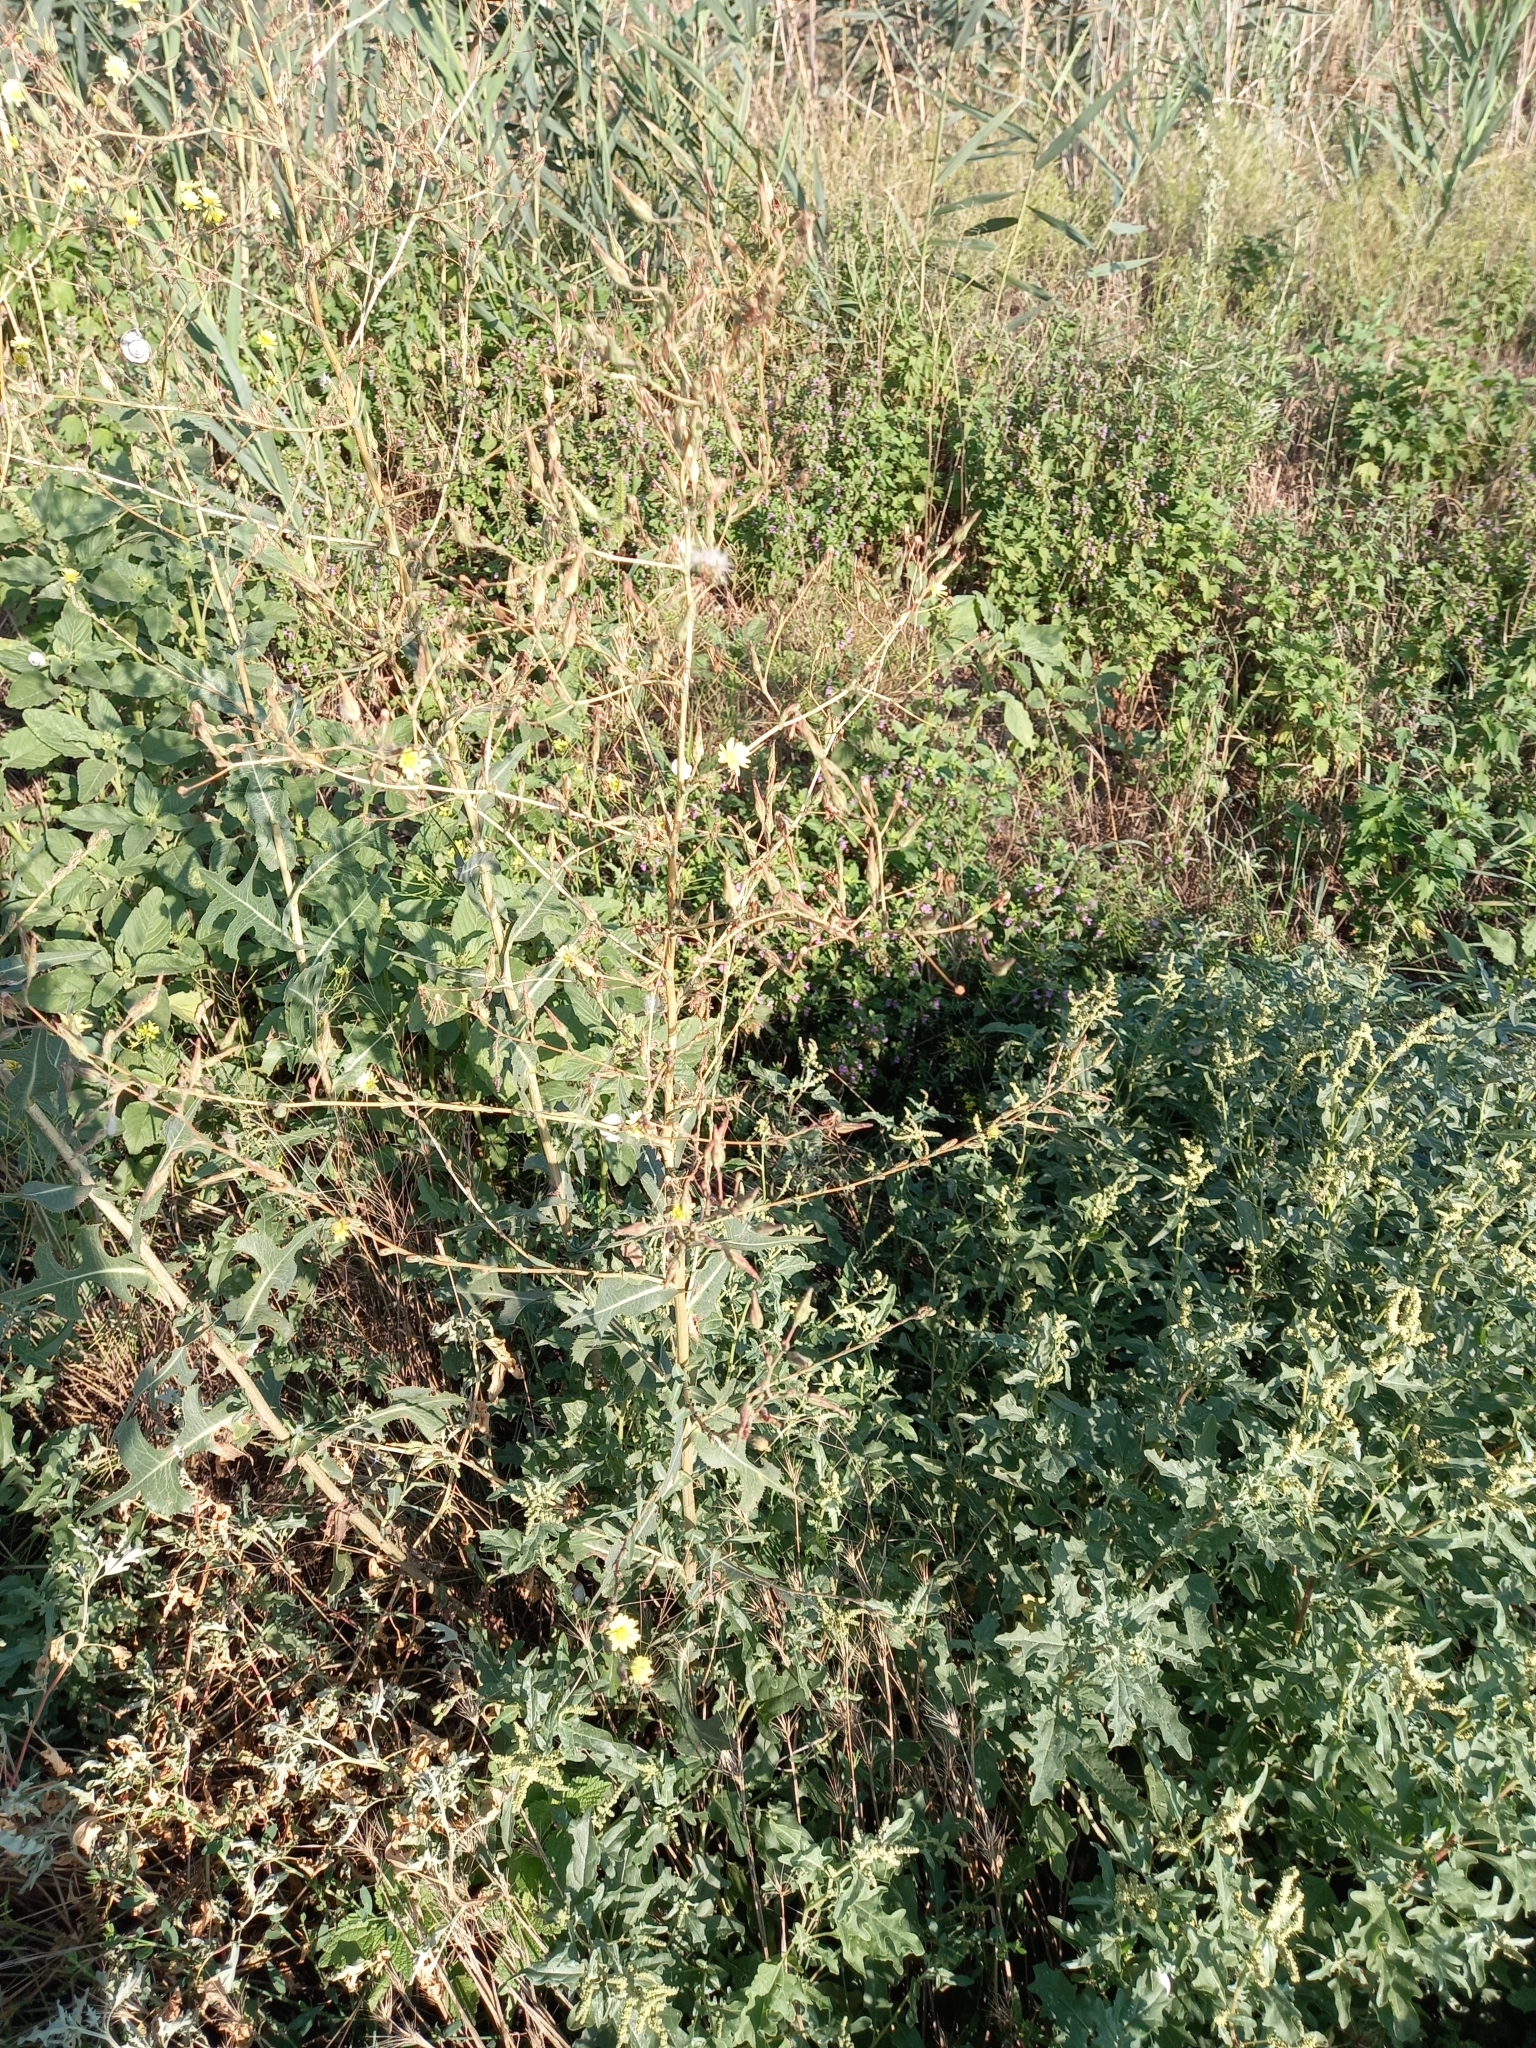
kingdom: Plantae
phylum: Tracheophyta
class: Magnoliopsida
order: Asterales
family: Asteraceae
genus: Lactuca
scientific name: Lactuca serriola
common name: Prickly lettuce
